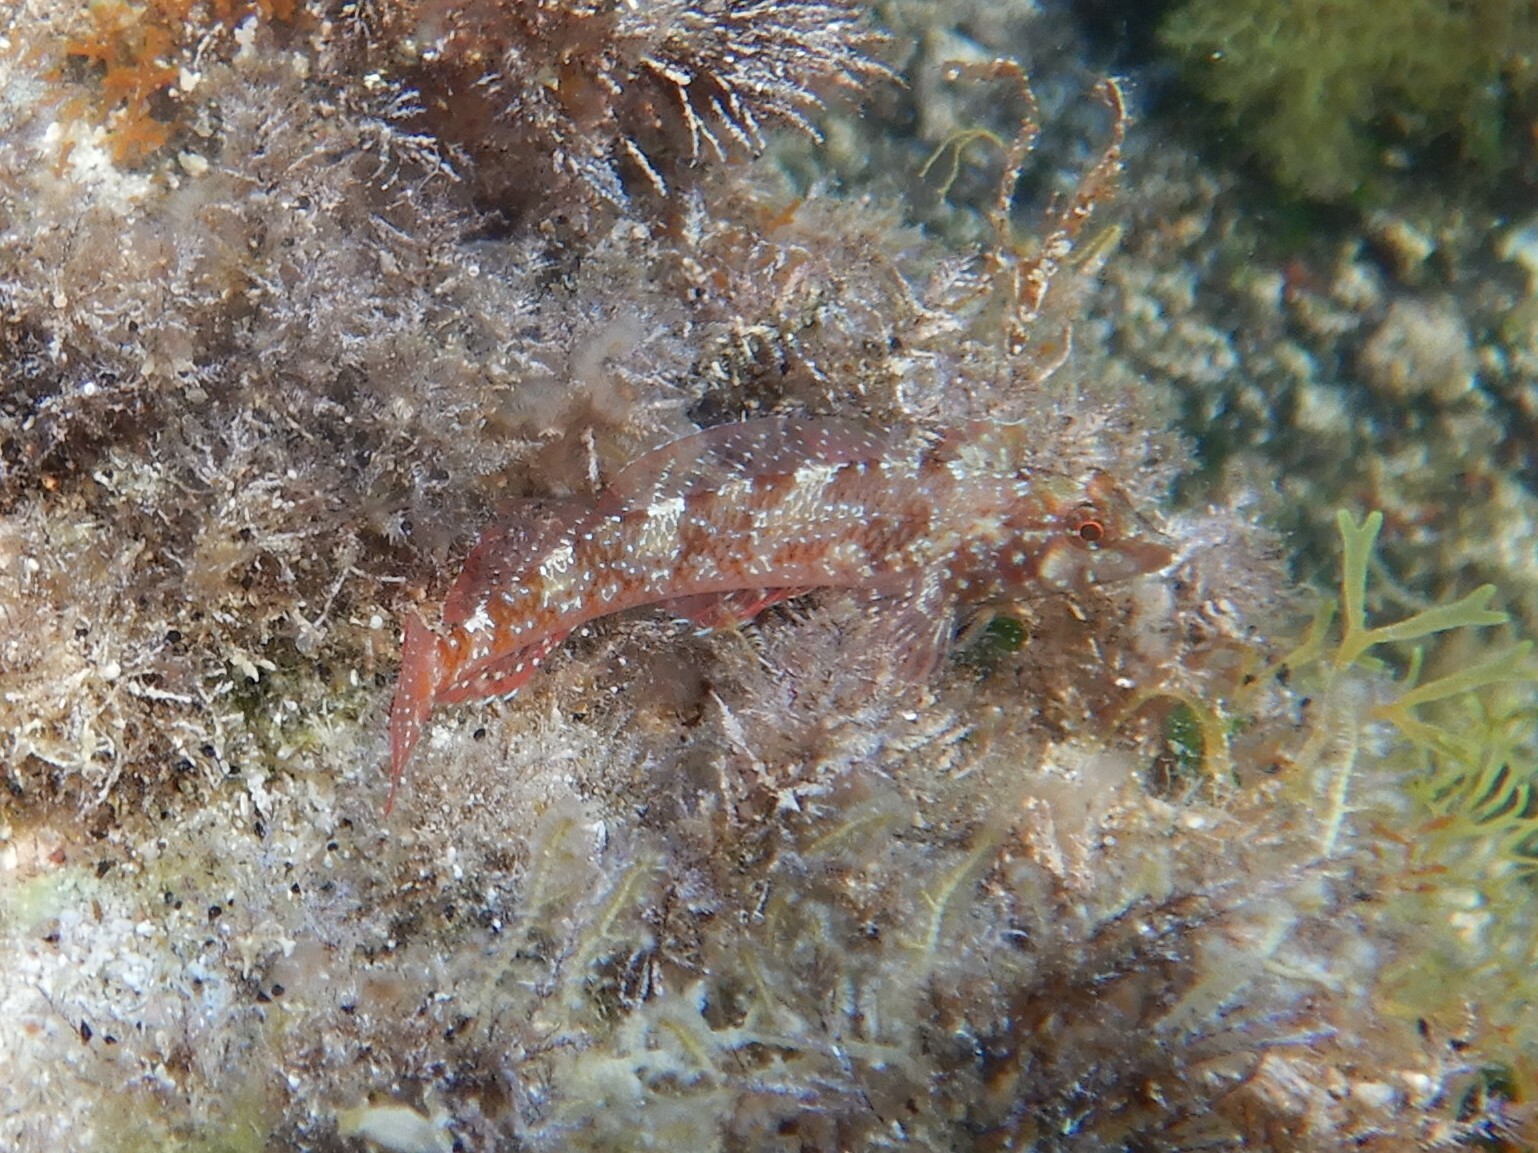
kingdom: Animalia
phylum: Chordata
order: Perciformes
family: Tripterygiidae
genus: Tripterygion
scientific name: Tripterygion tripteronotum
